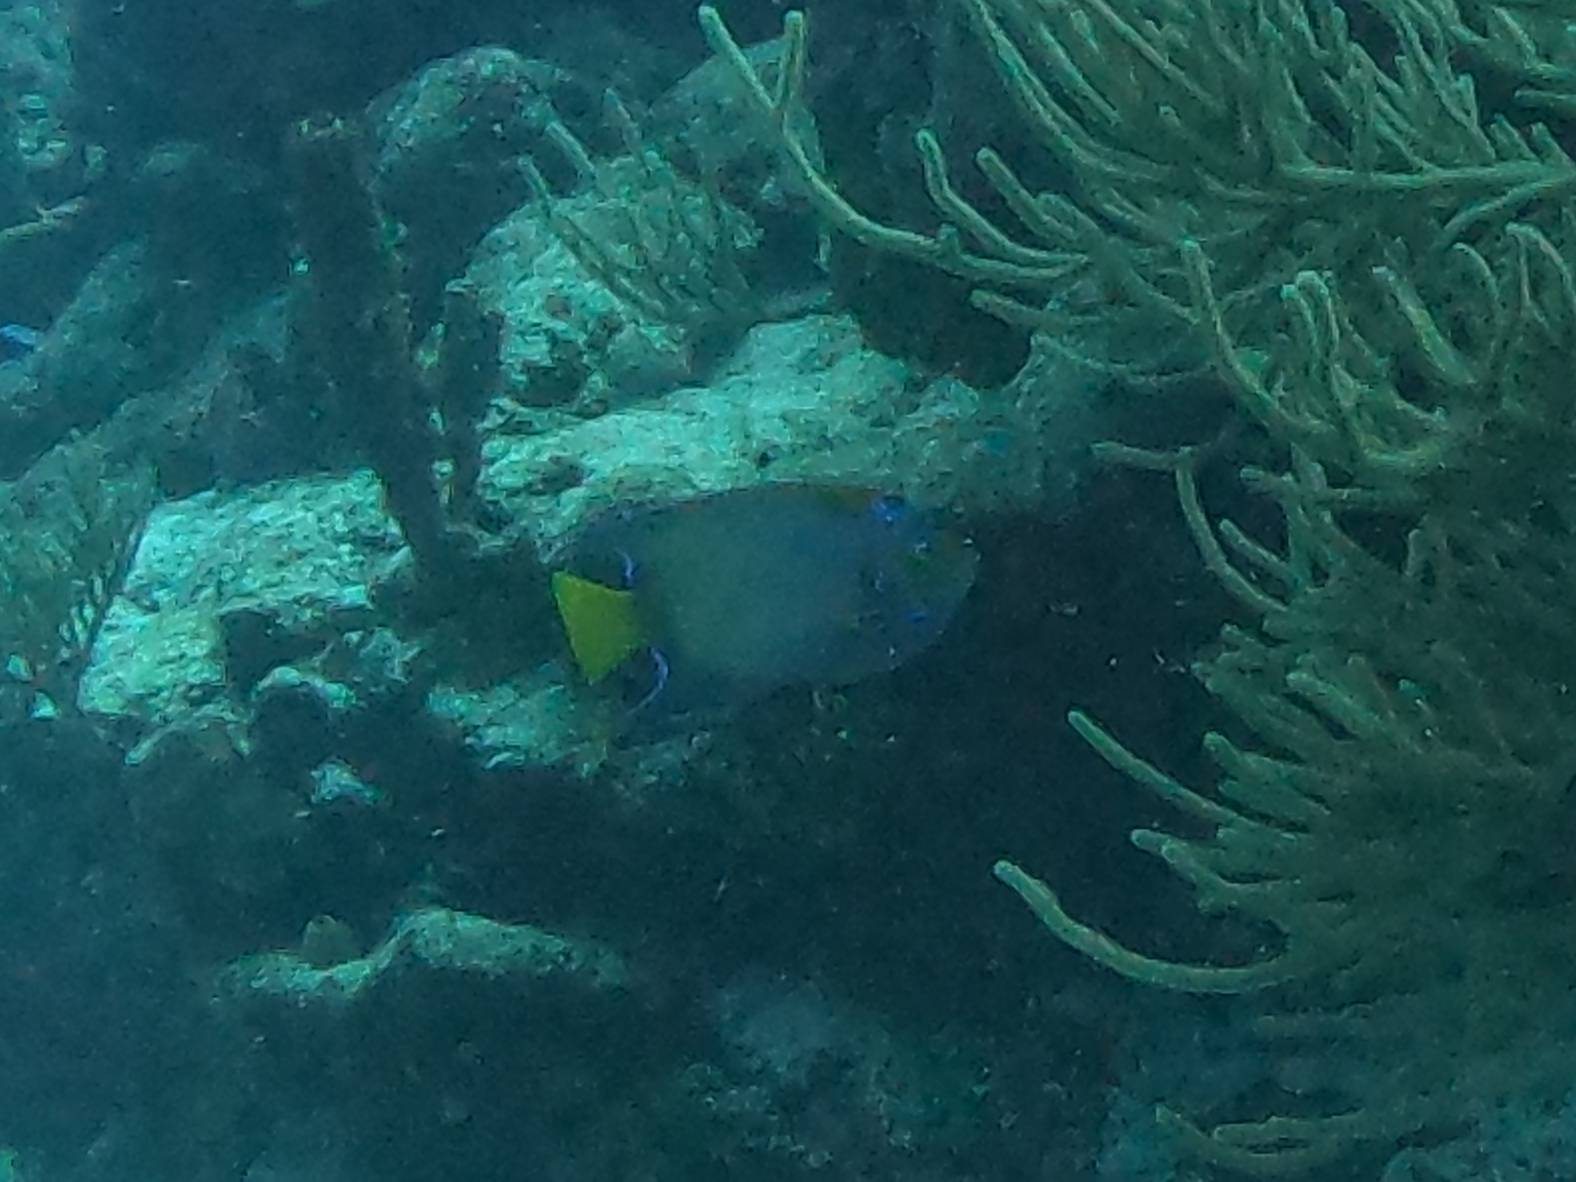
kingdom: Animalia
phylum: Chordata
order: Perciformes
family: Pomacanthidae
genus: Holacanthus
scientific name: Holacanthus ciliaris
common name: Queen angelfish
